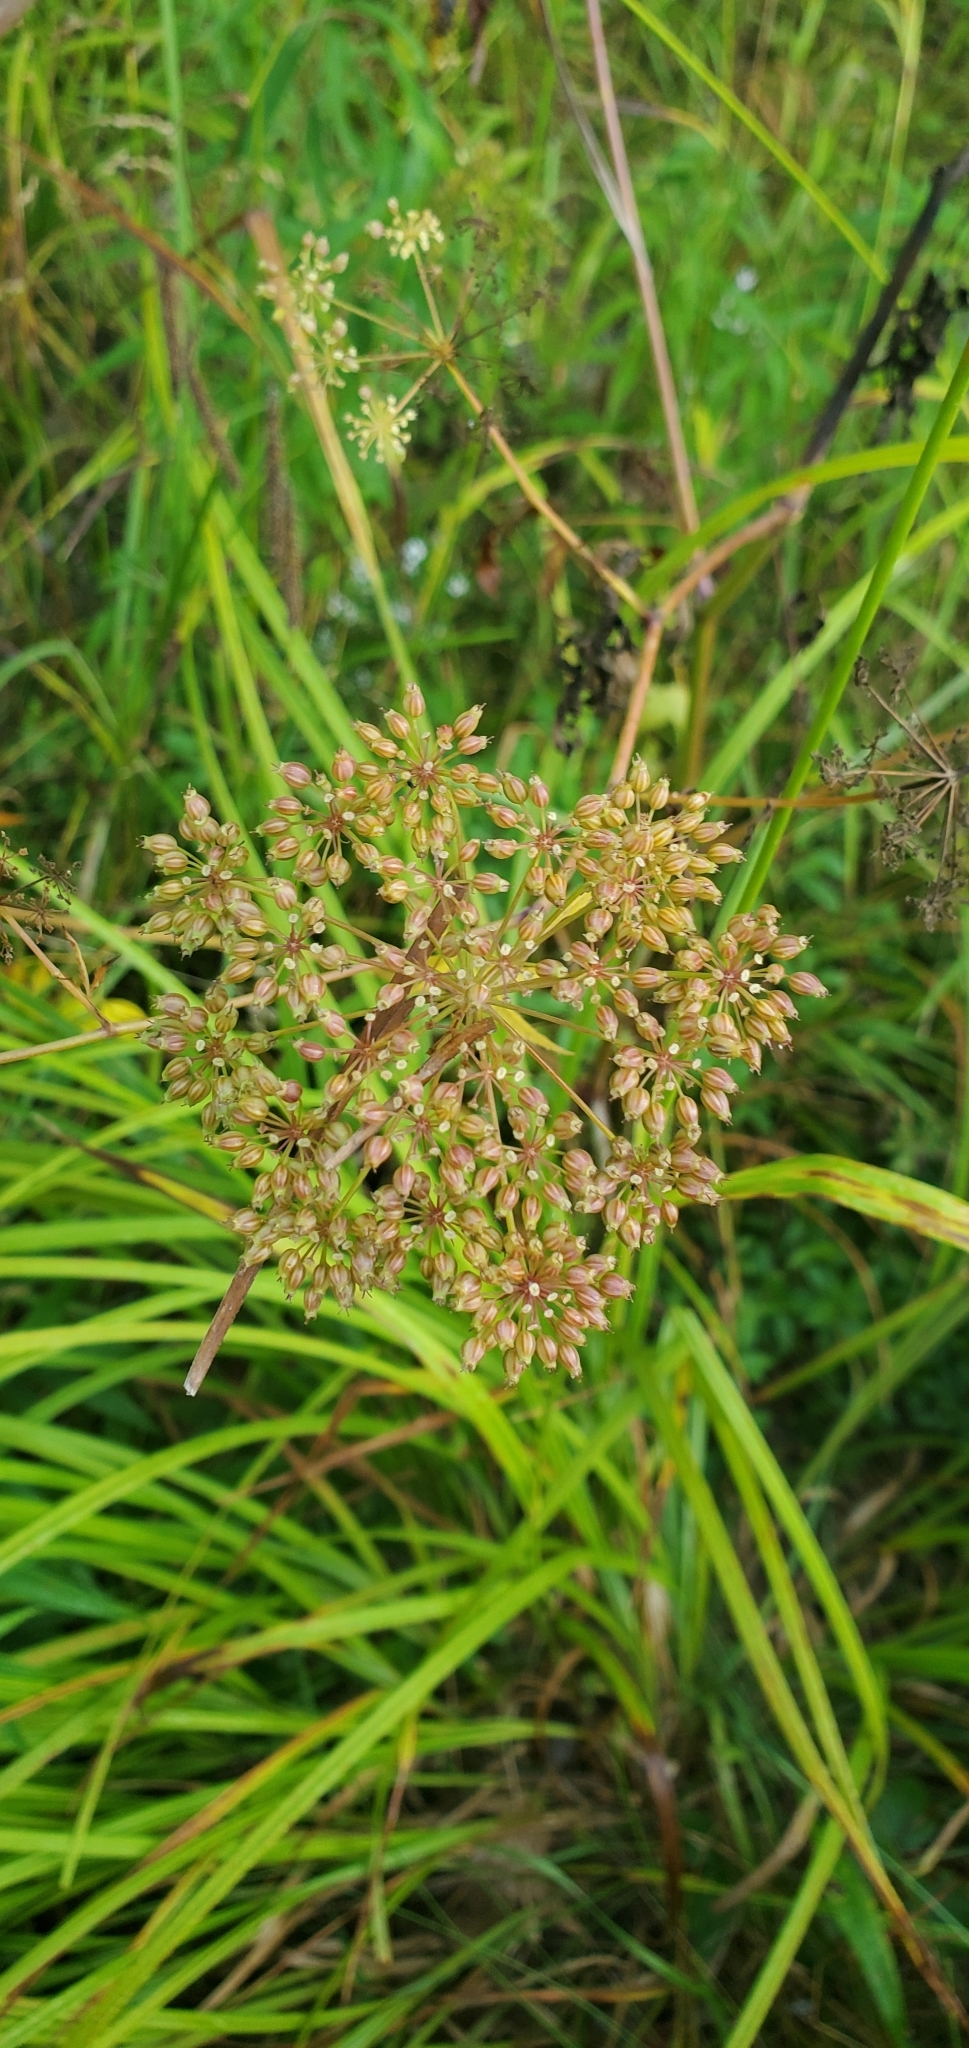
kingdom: Plantae
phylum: Tracheophyta
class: Magnoliopsida
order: Apiales
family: Apiaceae
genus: Cicuta
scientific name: Cicuta maculata
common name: Spotted cowbane
